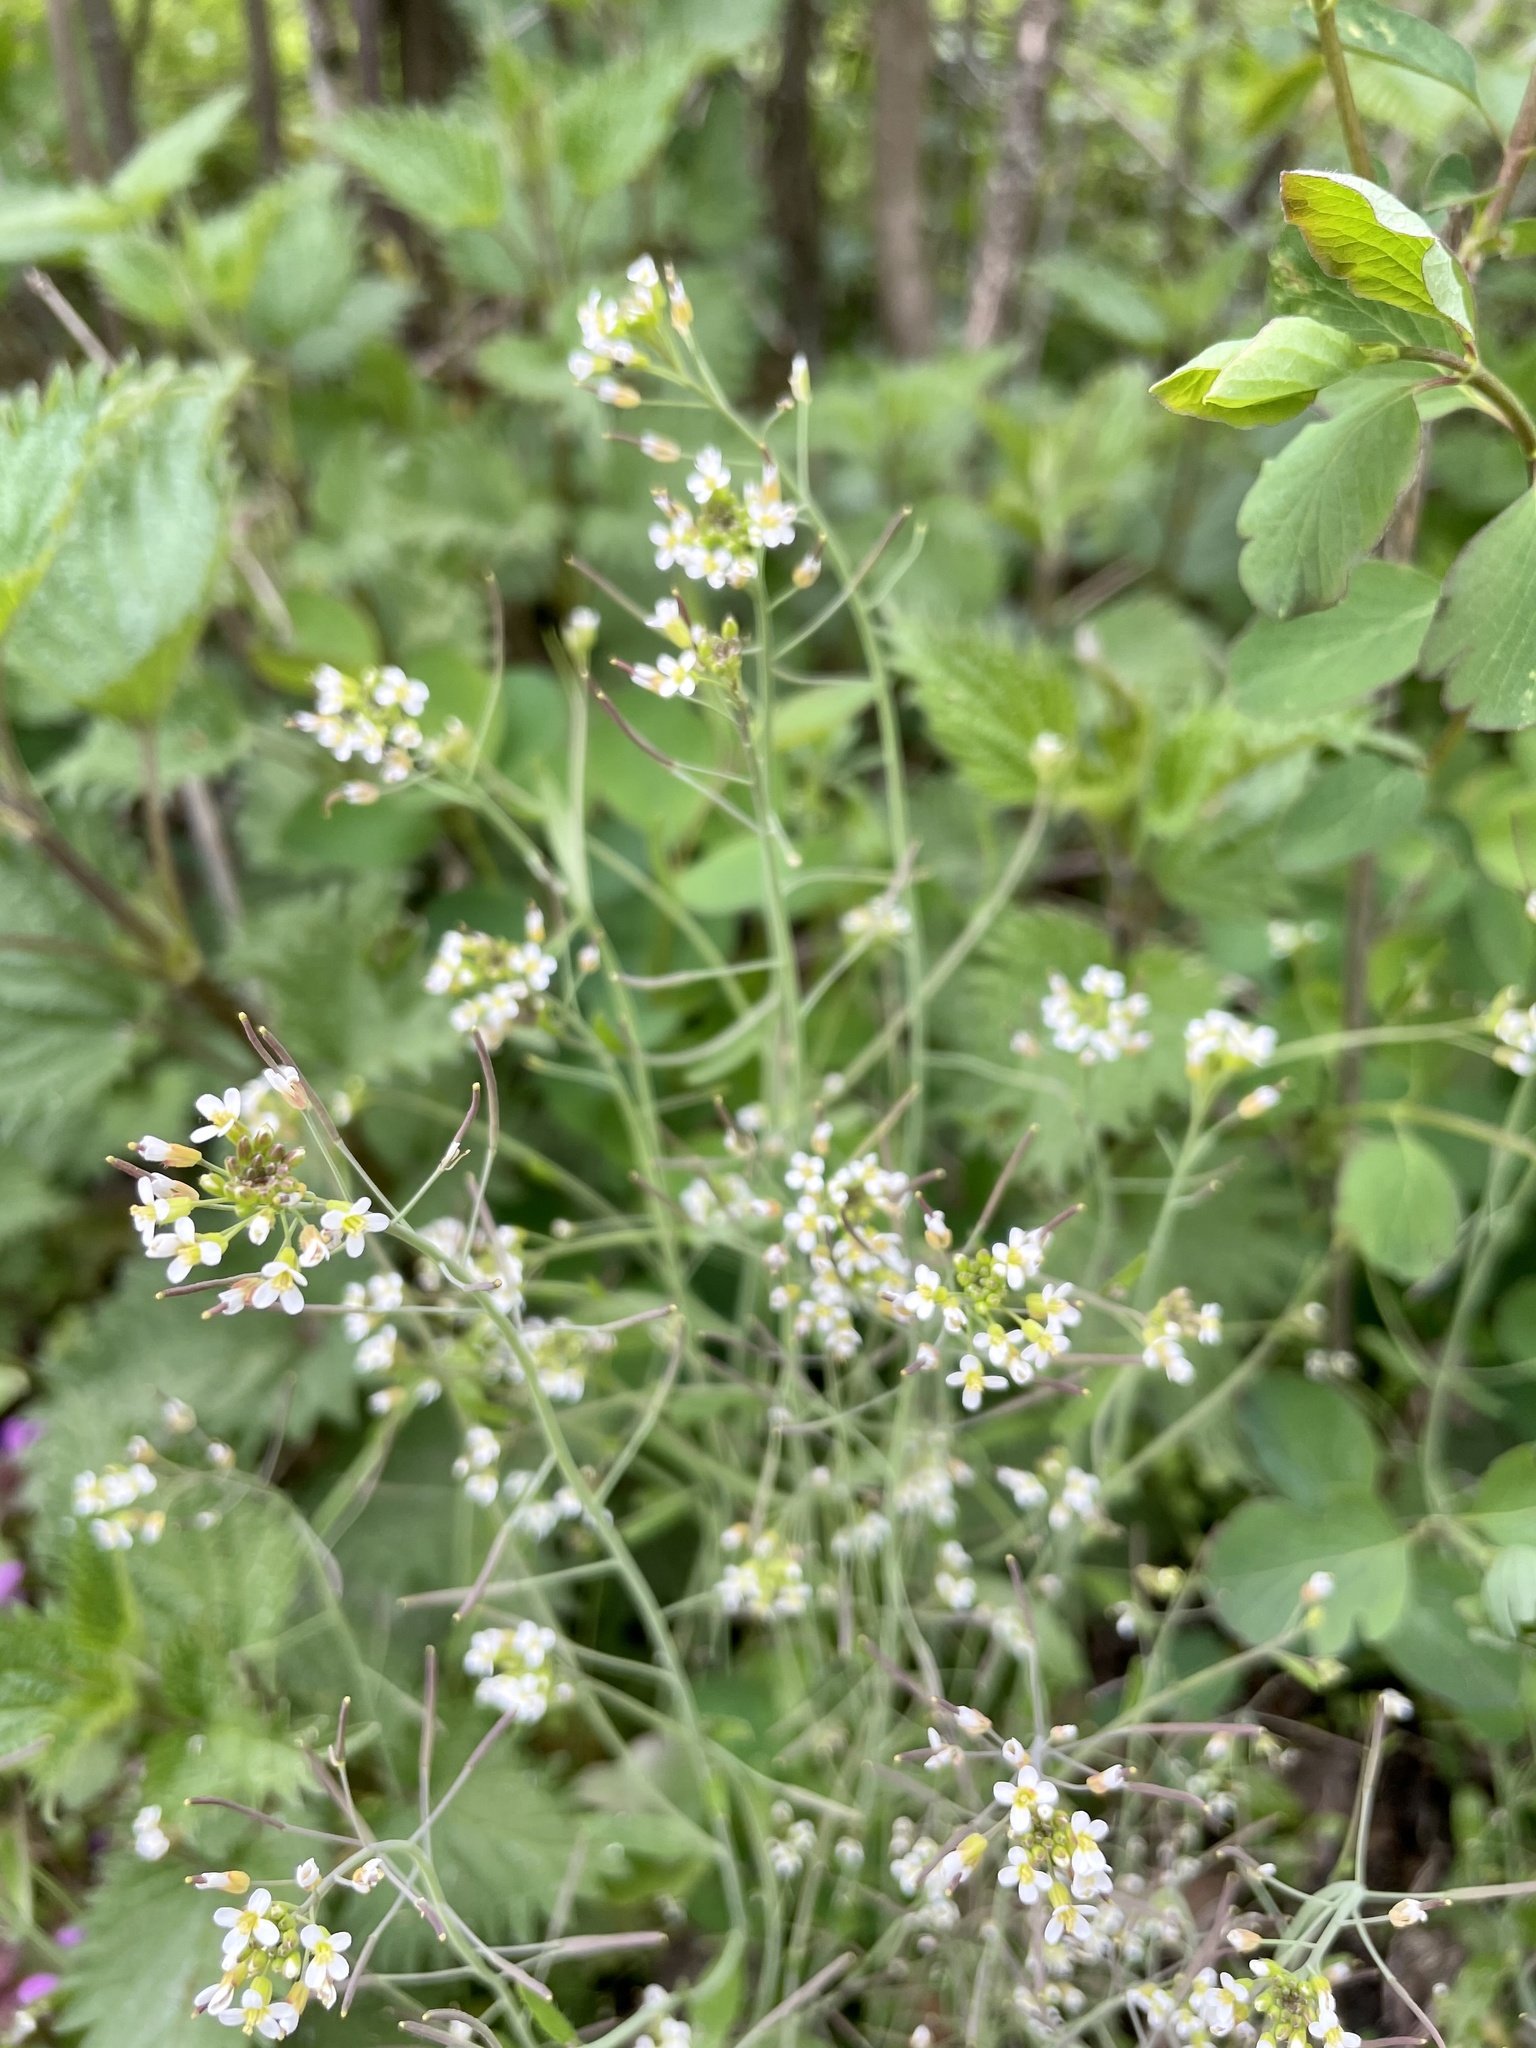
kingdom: Plantae
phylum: Tracheophyta
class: Magnoliopsida
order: Brassicales
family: Brassicaceae
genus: Arabidopsis
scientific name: Arabidopsis thaliana
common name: Thale cress
